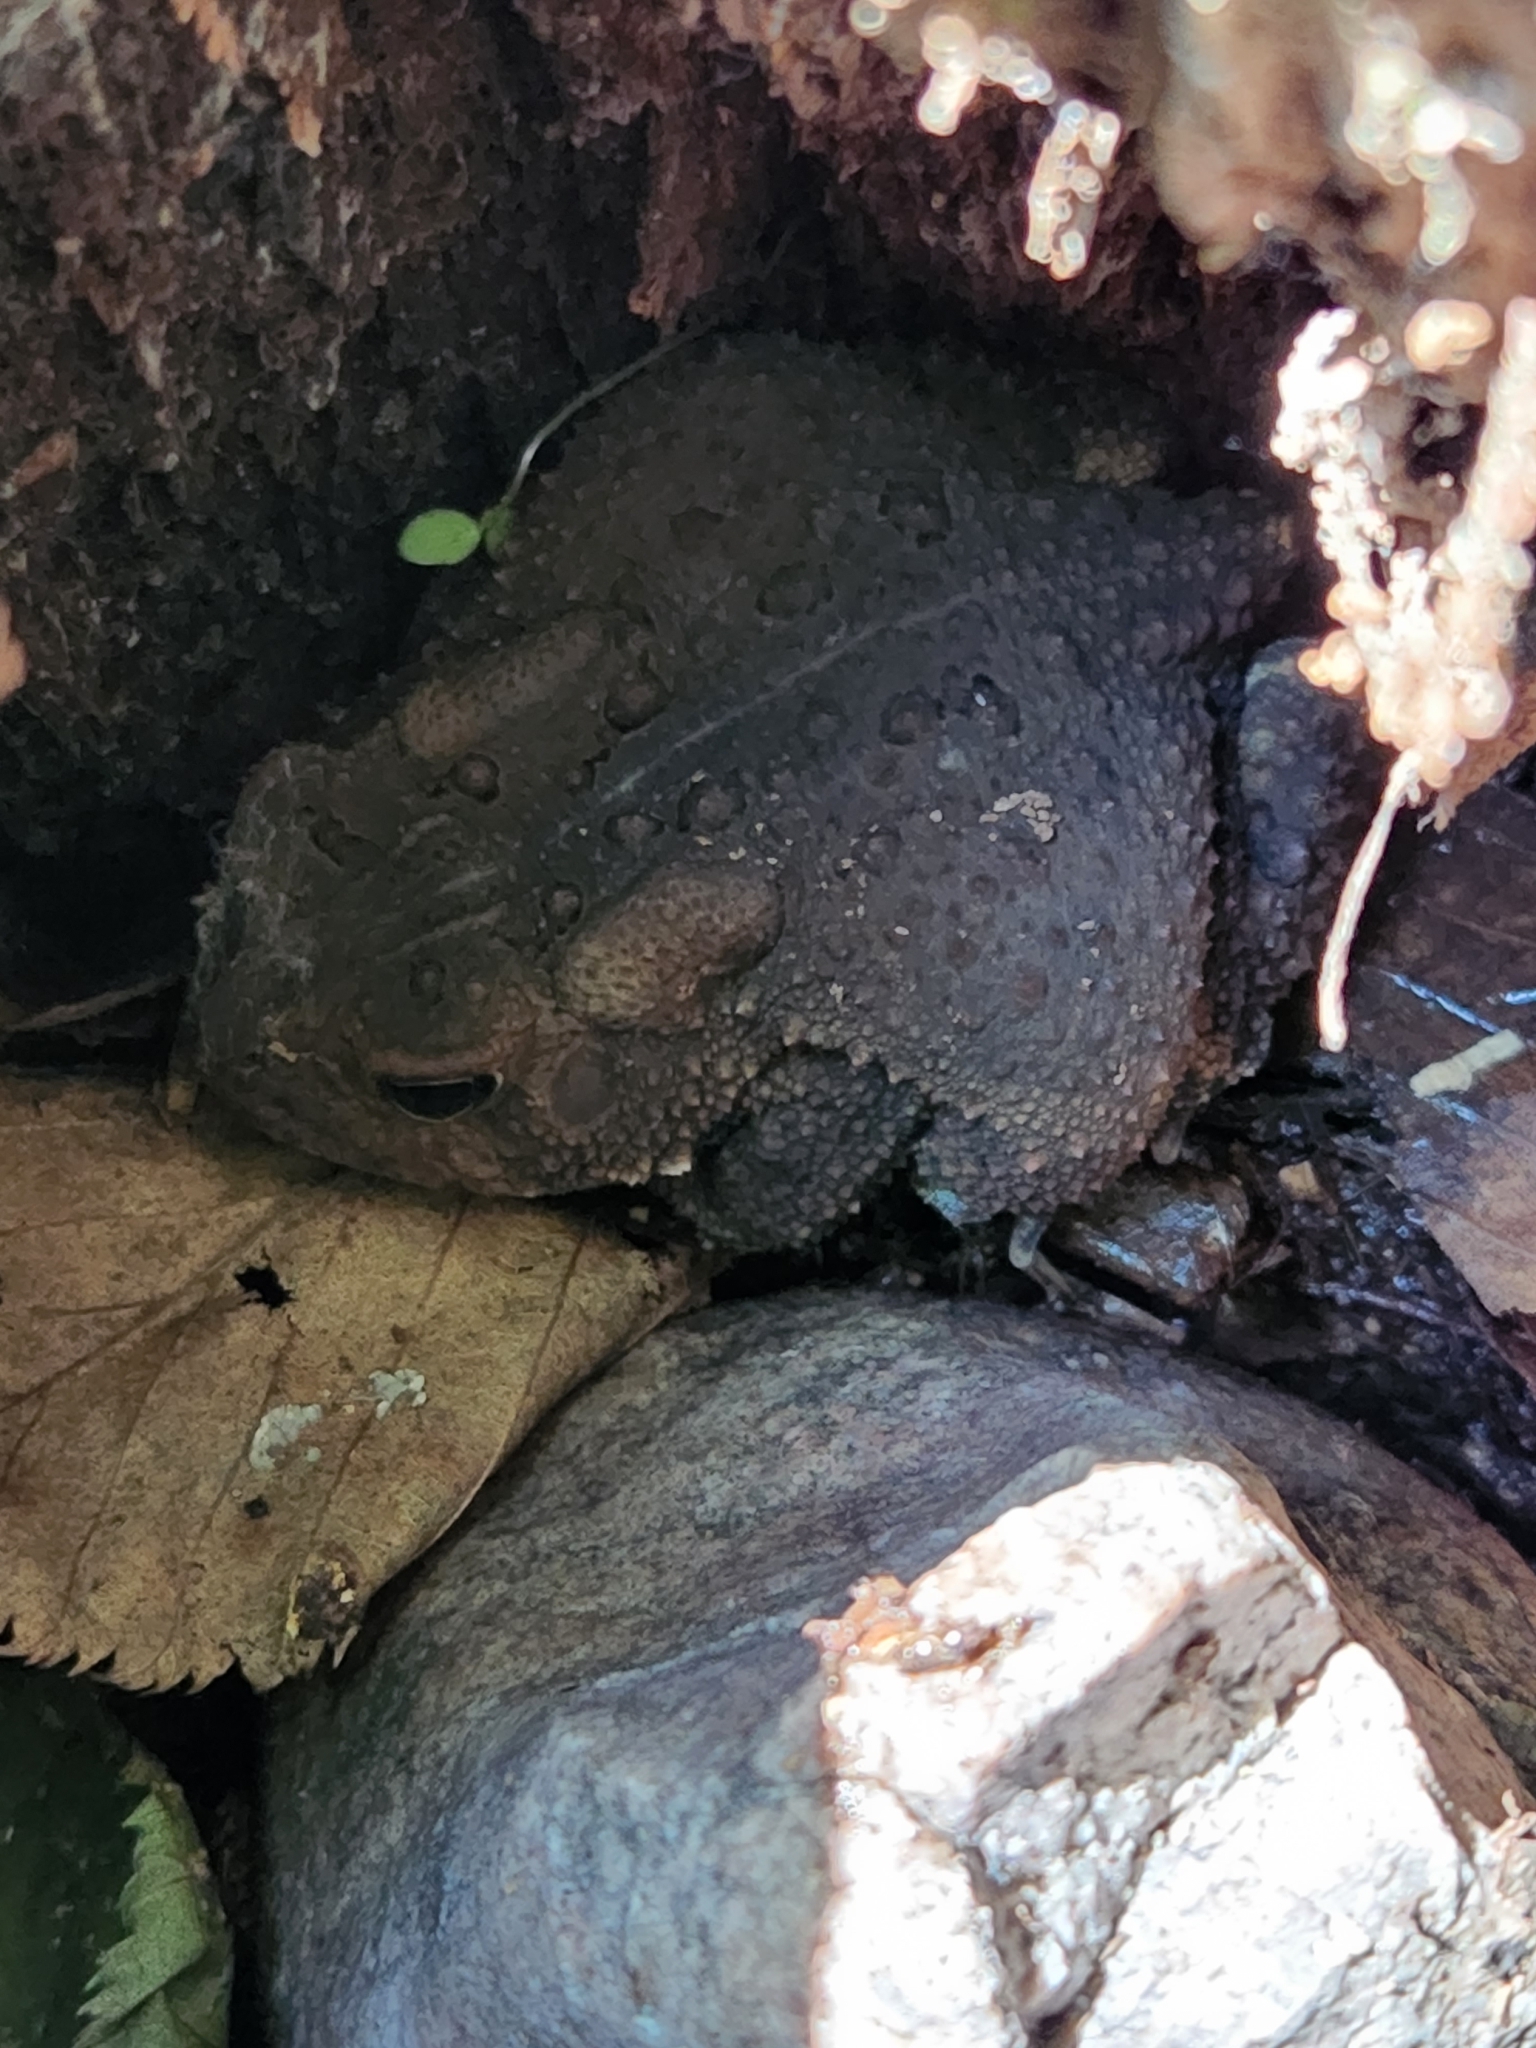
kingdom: Animalia
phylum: Chordata
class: Amphibia
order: Anura
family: Bufonidae
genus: Anaxyrus
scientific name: Anaxyrus americanus
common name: American toad
